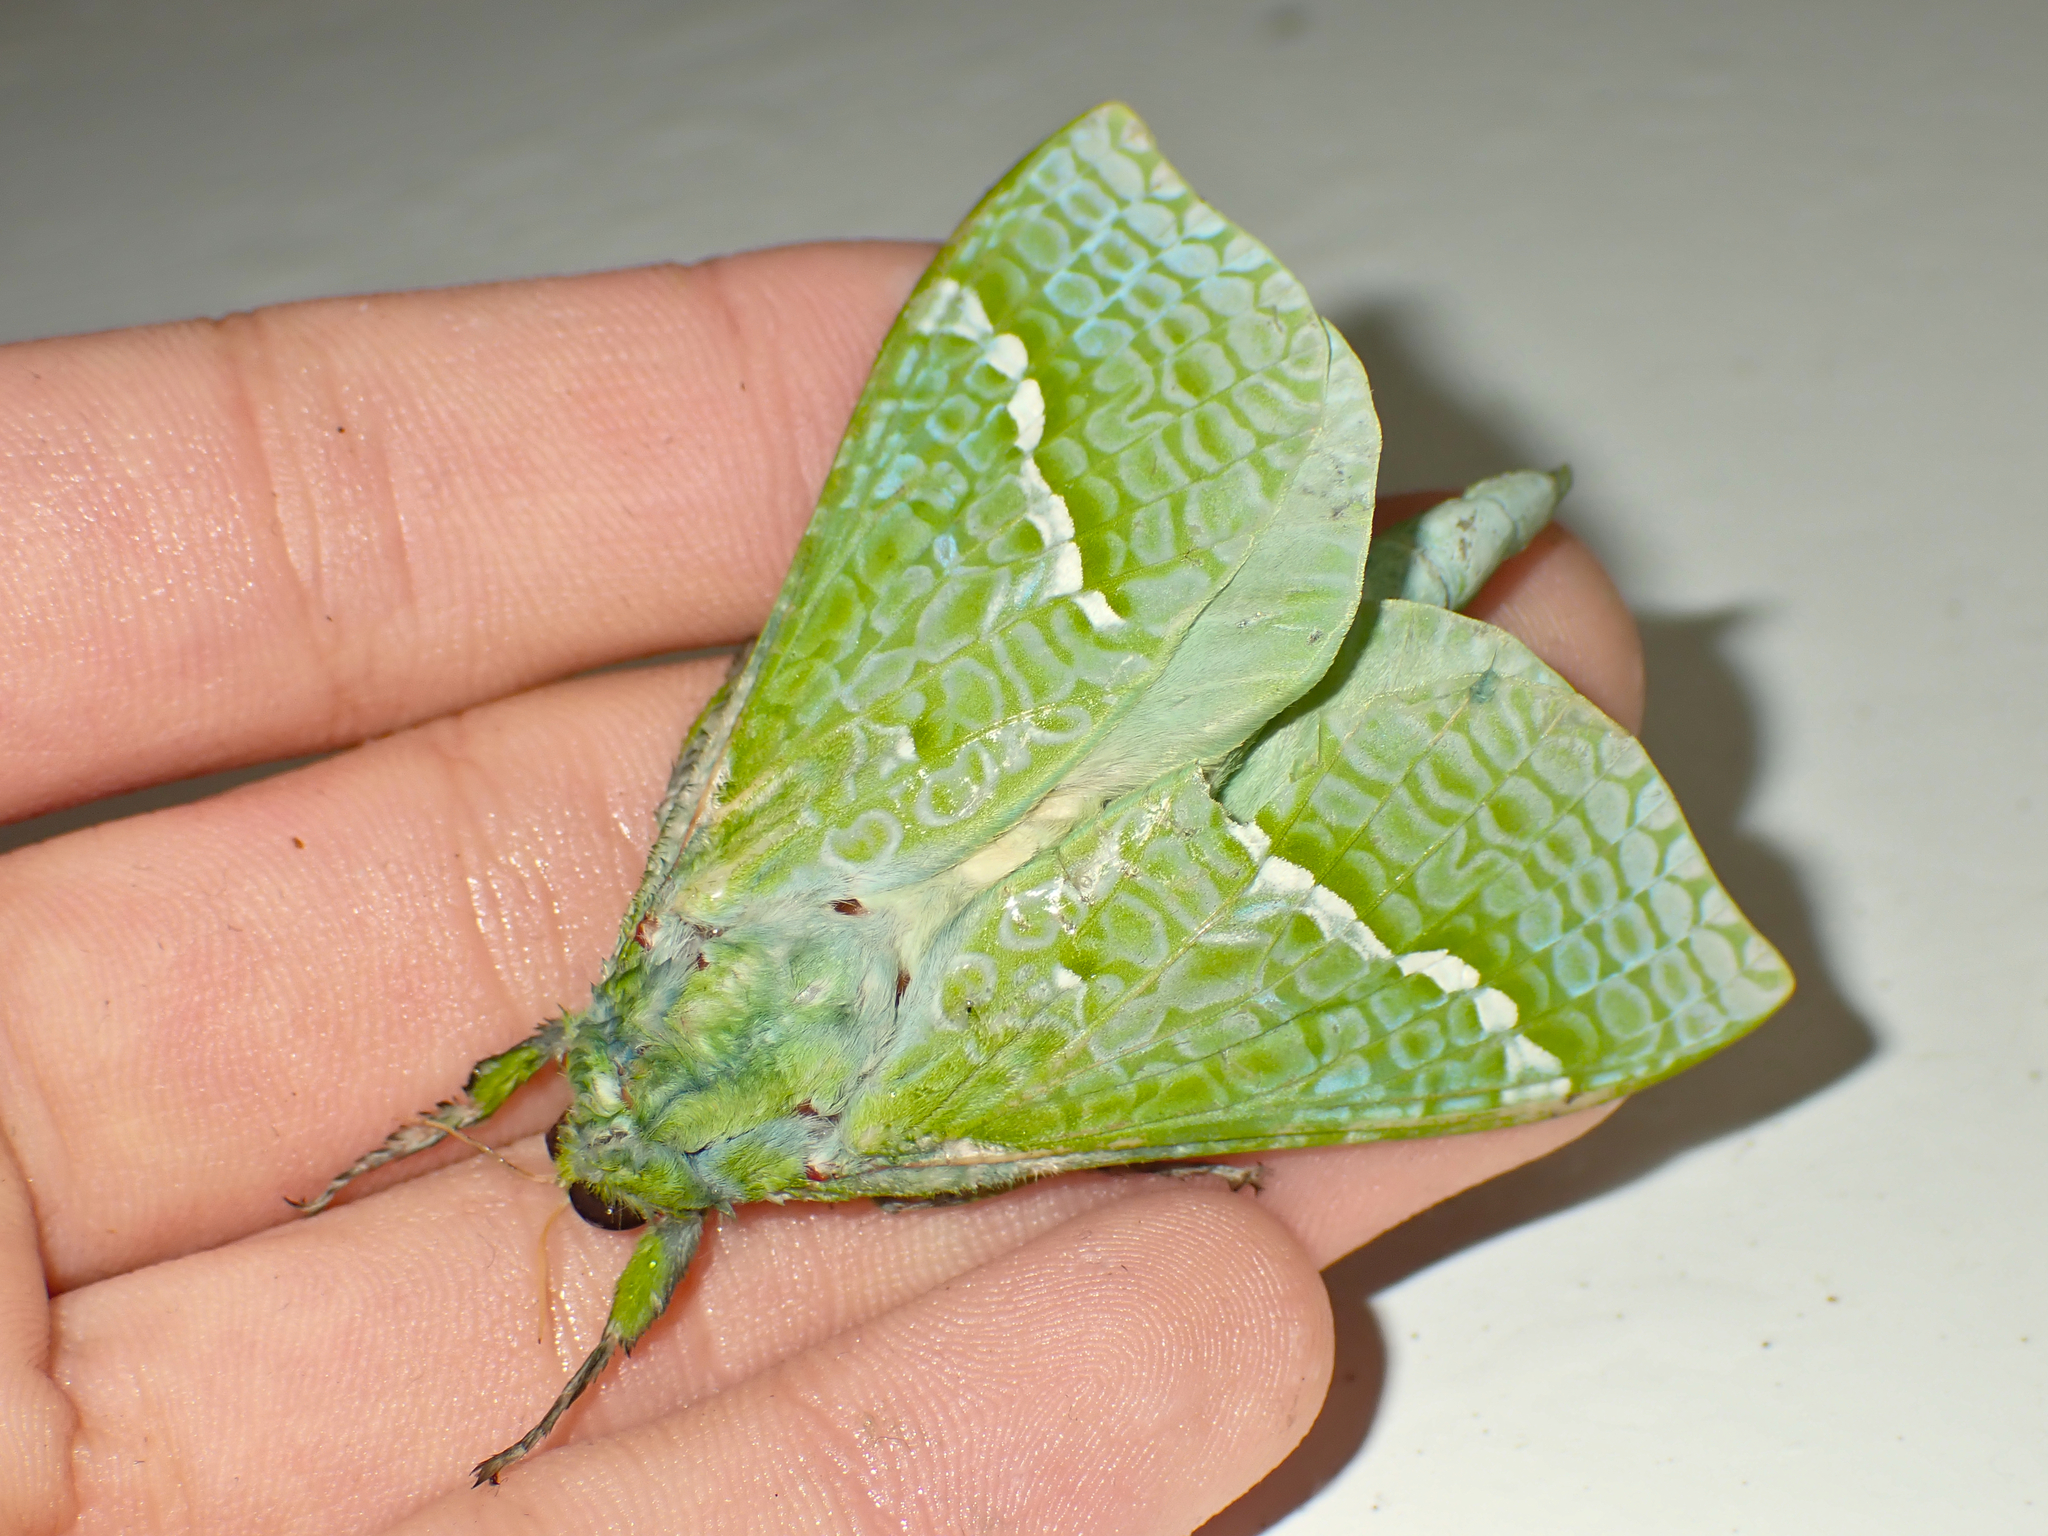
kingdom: Animalia
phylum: Arthropoda
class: Insecta
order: Lepidoptera
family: Hepialidae
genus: Aenetus
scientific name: Aenetus virescens
